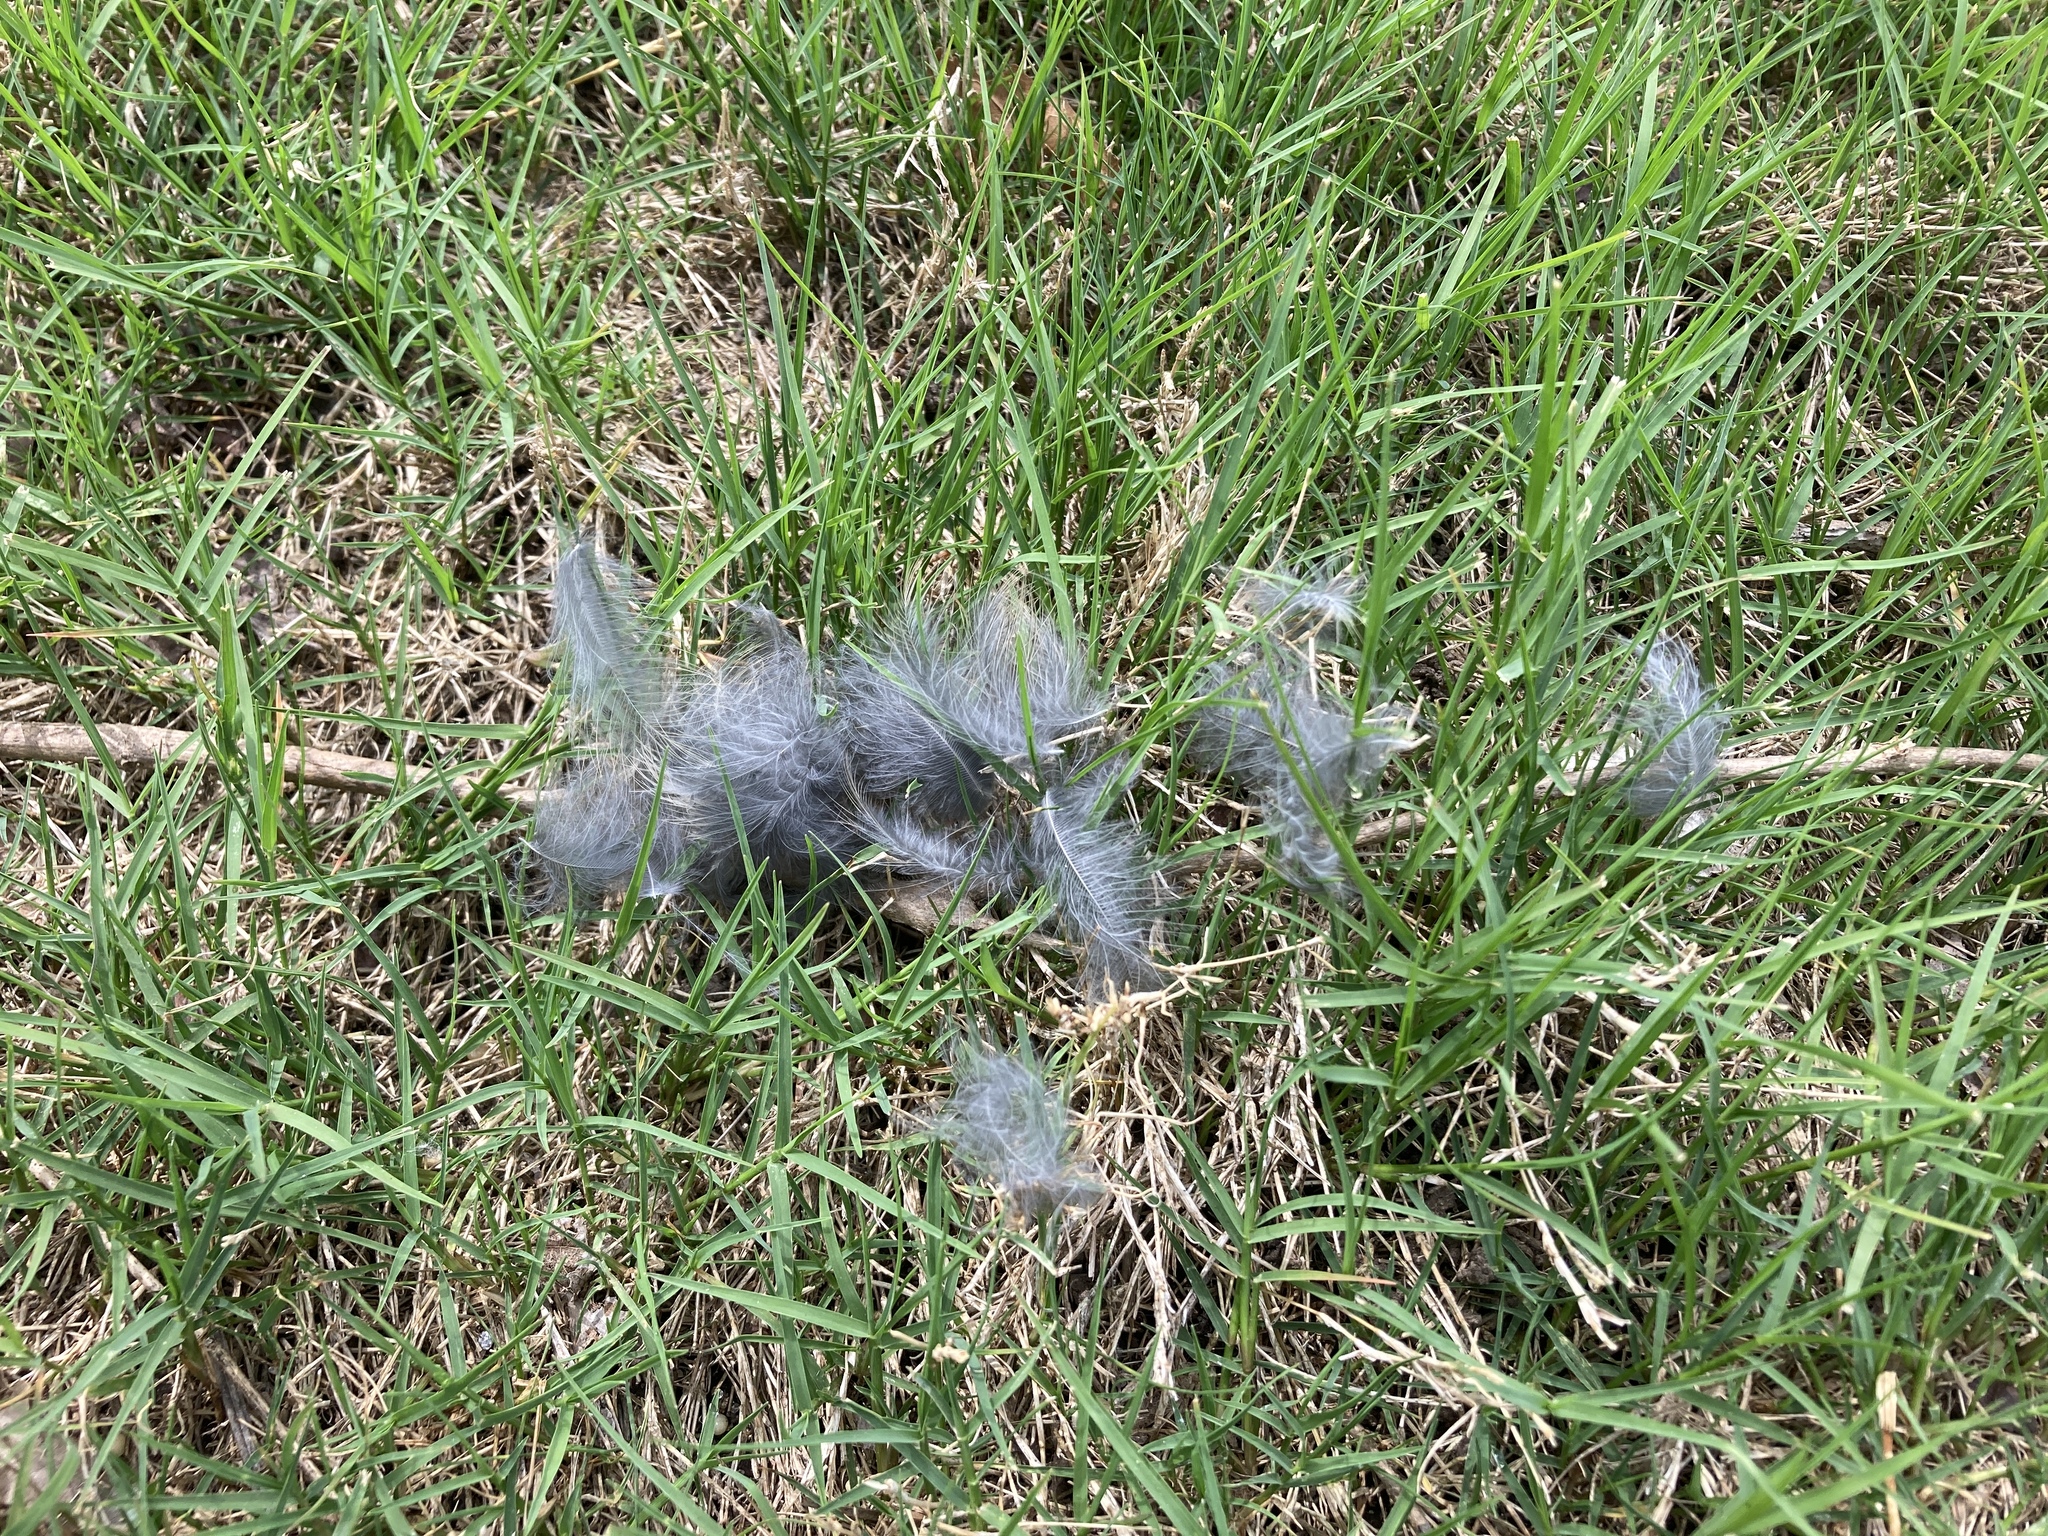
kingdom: Animalia
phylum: Chordata
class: Aves
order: Passeriformes
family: Turdidae
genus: Turdus
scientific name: Turdus migratorius
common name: American robin
